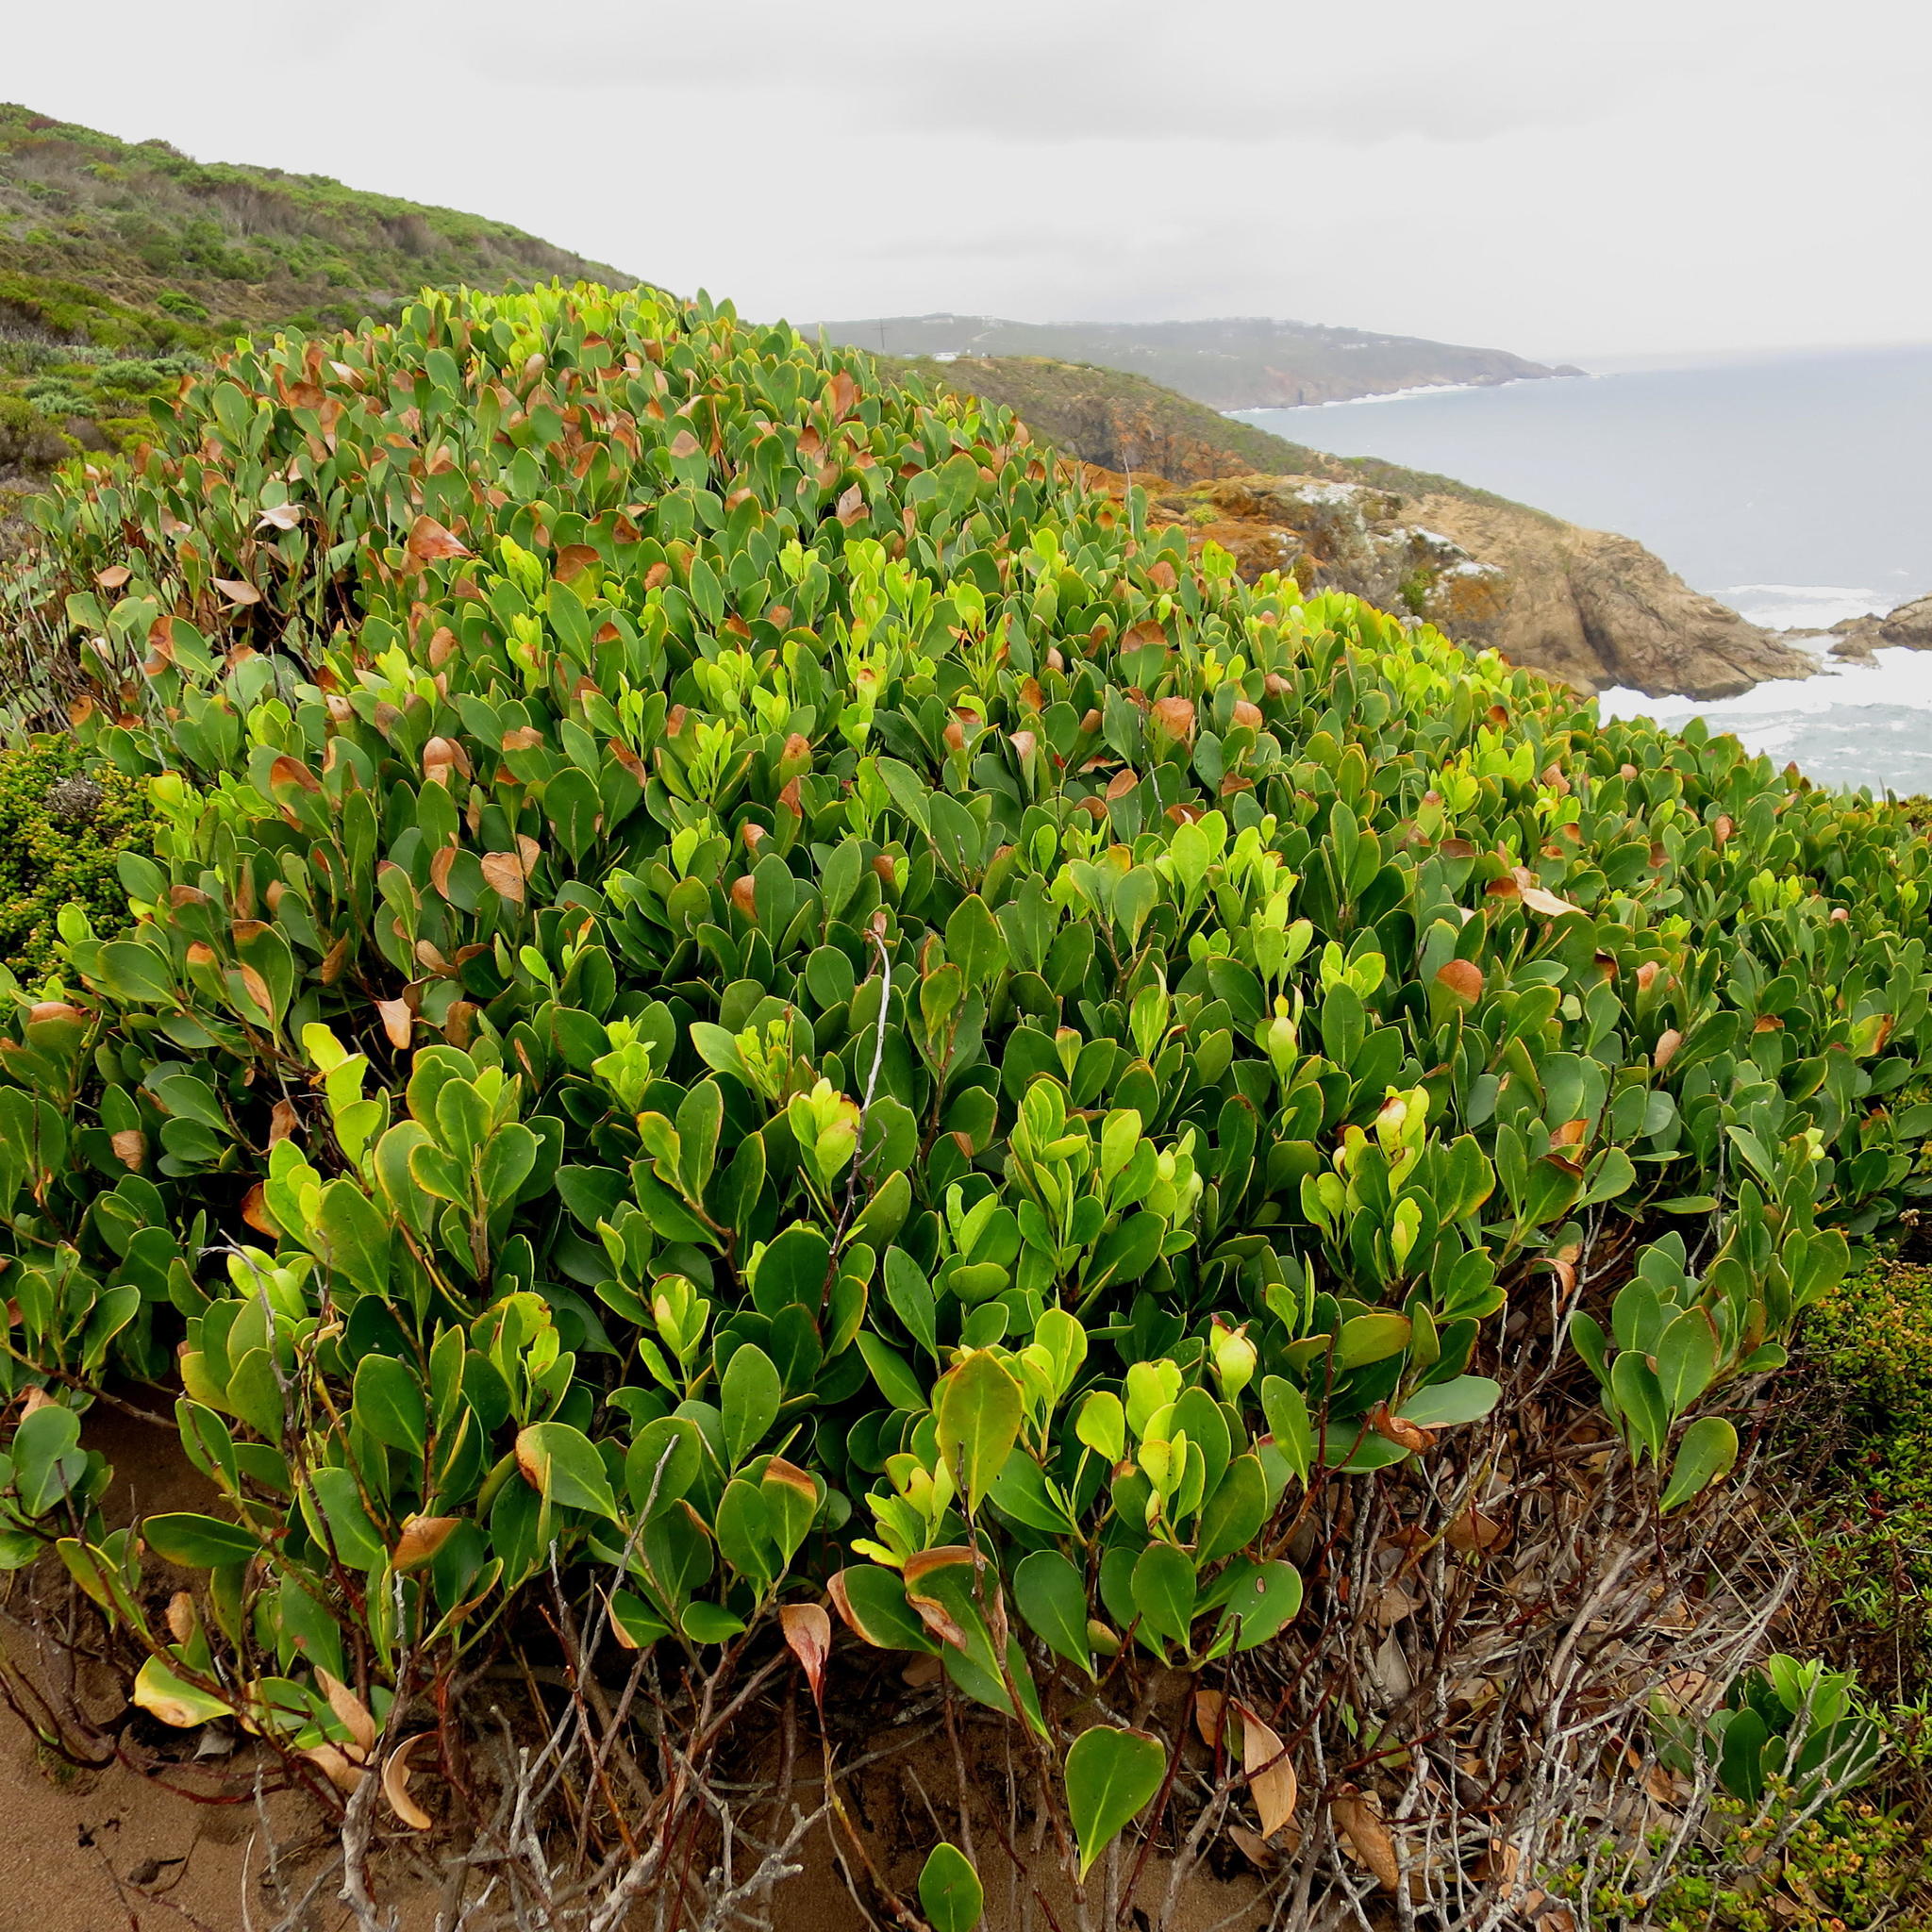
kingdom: Plantae
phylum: Tracheophyta
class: Magnoliopsida
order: Celastrales
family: Celastraceae
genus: Pterocelastrus
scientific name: Pterocelastrus tricuspidatus
